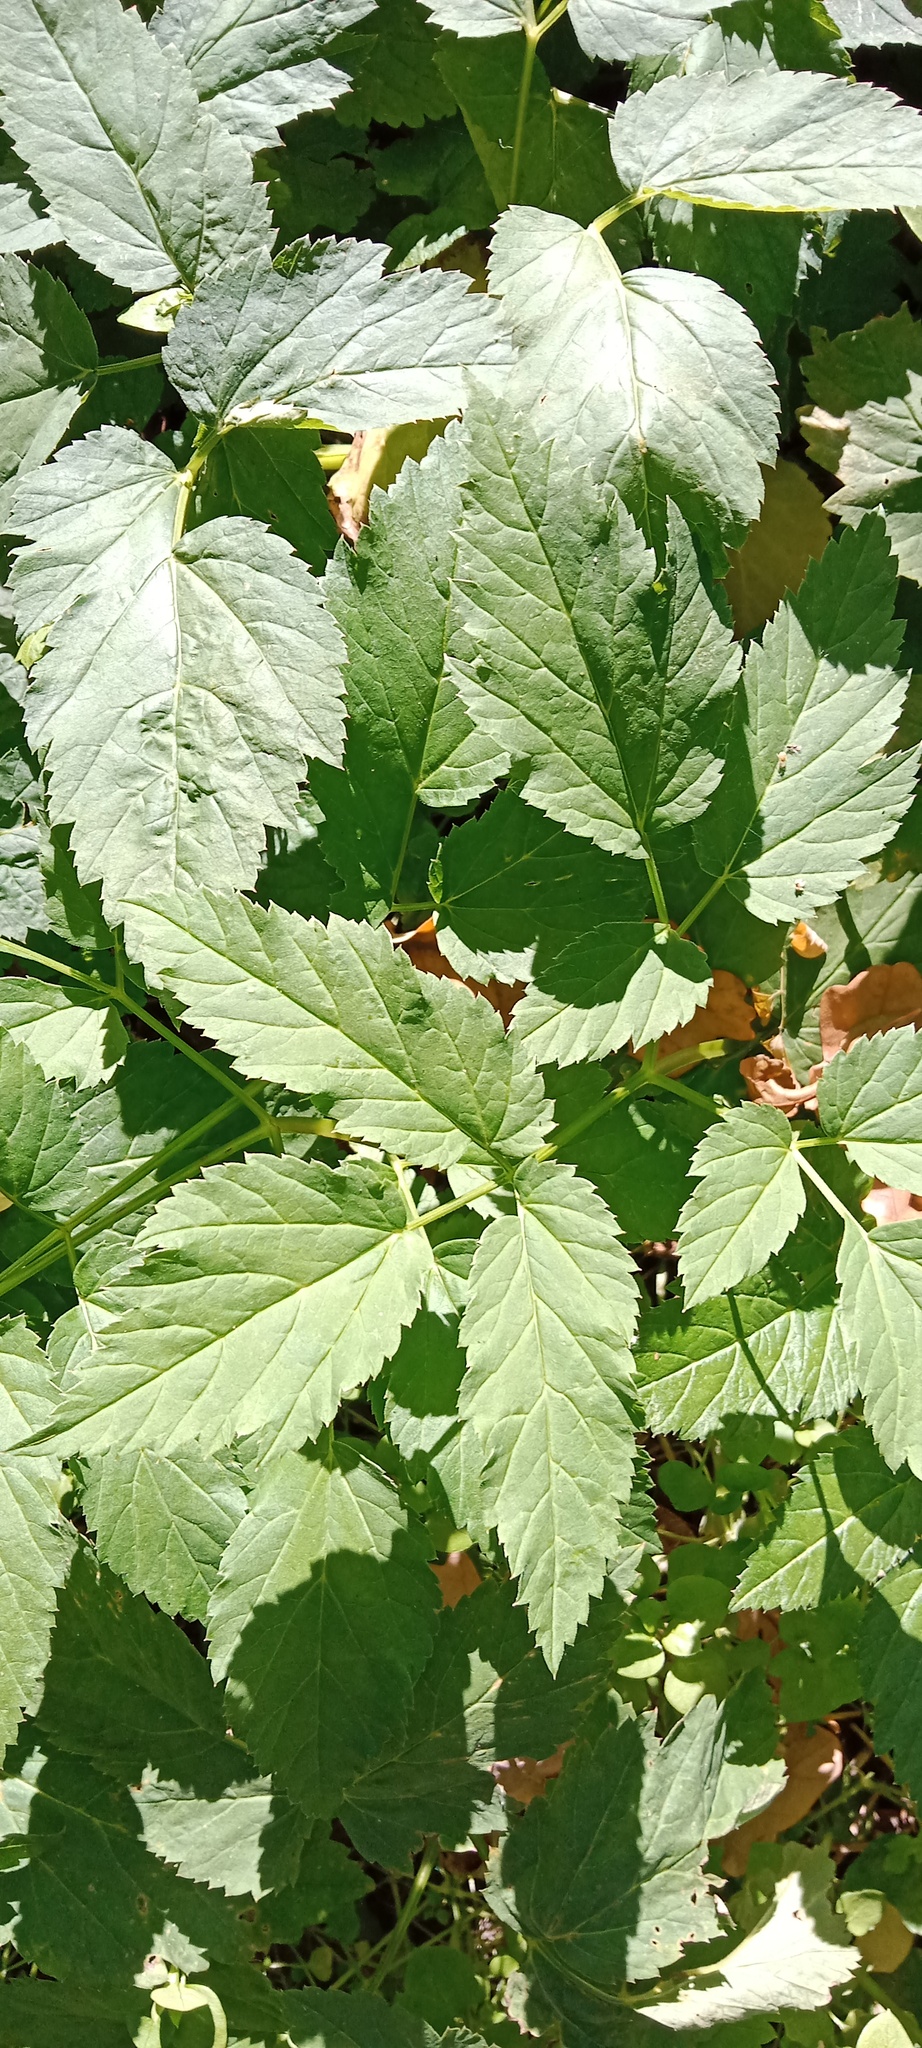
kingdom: Plantae
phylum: Tracheophyta
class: Magnoliopsida
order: Apiales
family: Apiaceae
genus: Aegopodium
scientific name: Aegopodium podagraria
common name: Ground-elder
